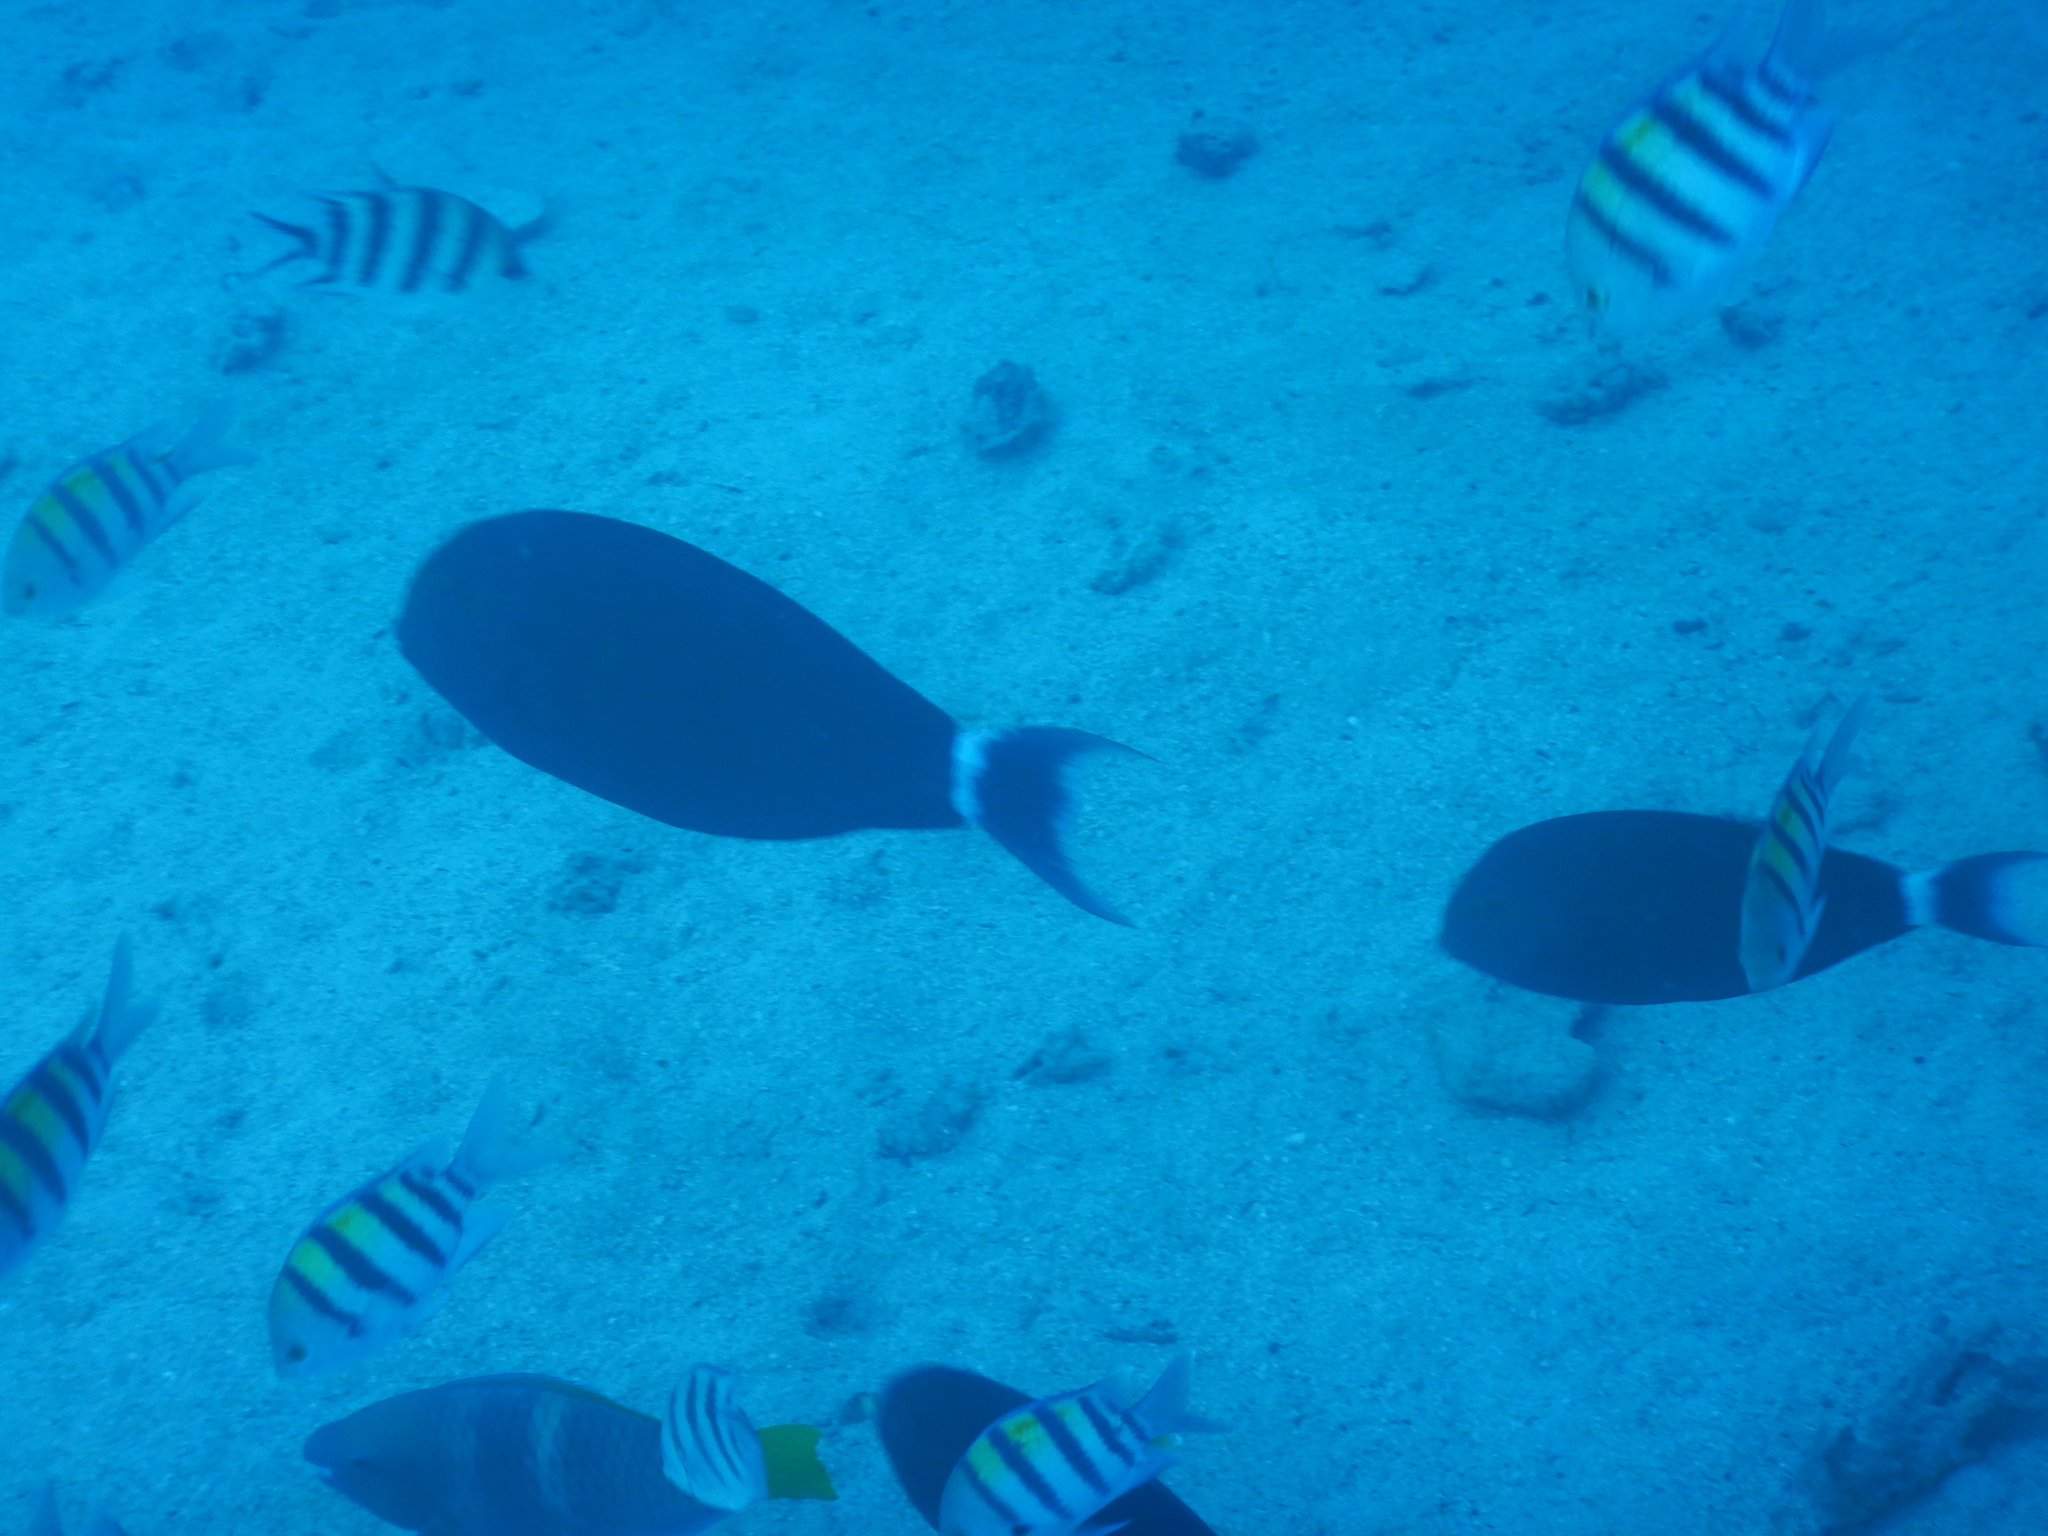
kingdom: Animalia
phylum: Chordata
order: Perciformes
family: Pomacentridae
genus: Abudefduf
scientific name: Abudefduf vaigiensis
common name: Indo-pacific sergeant
